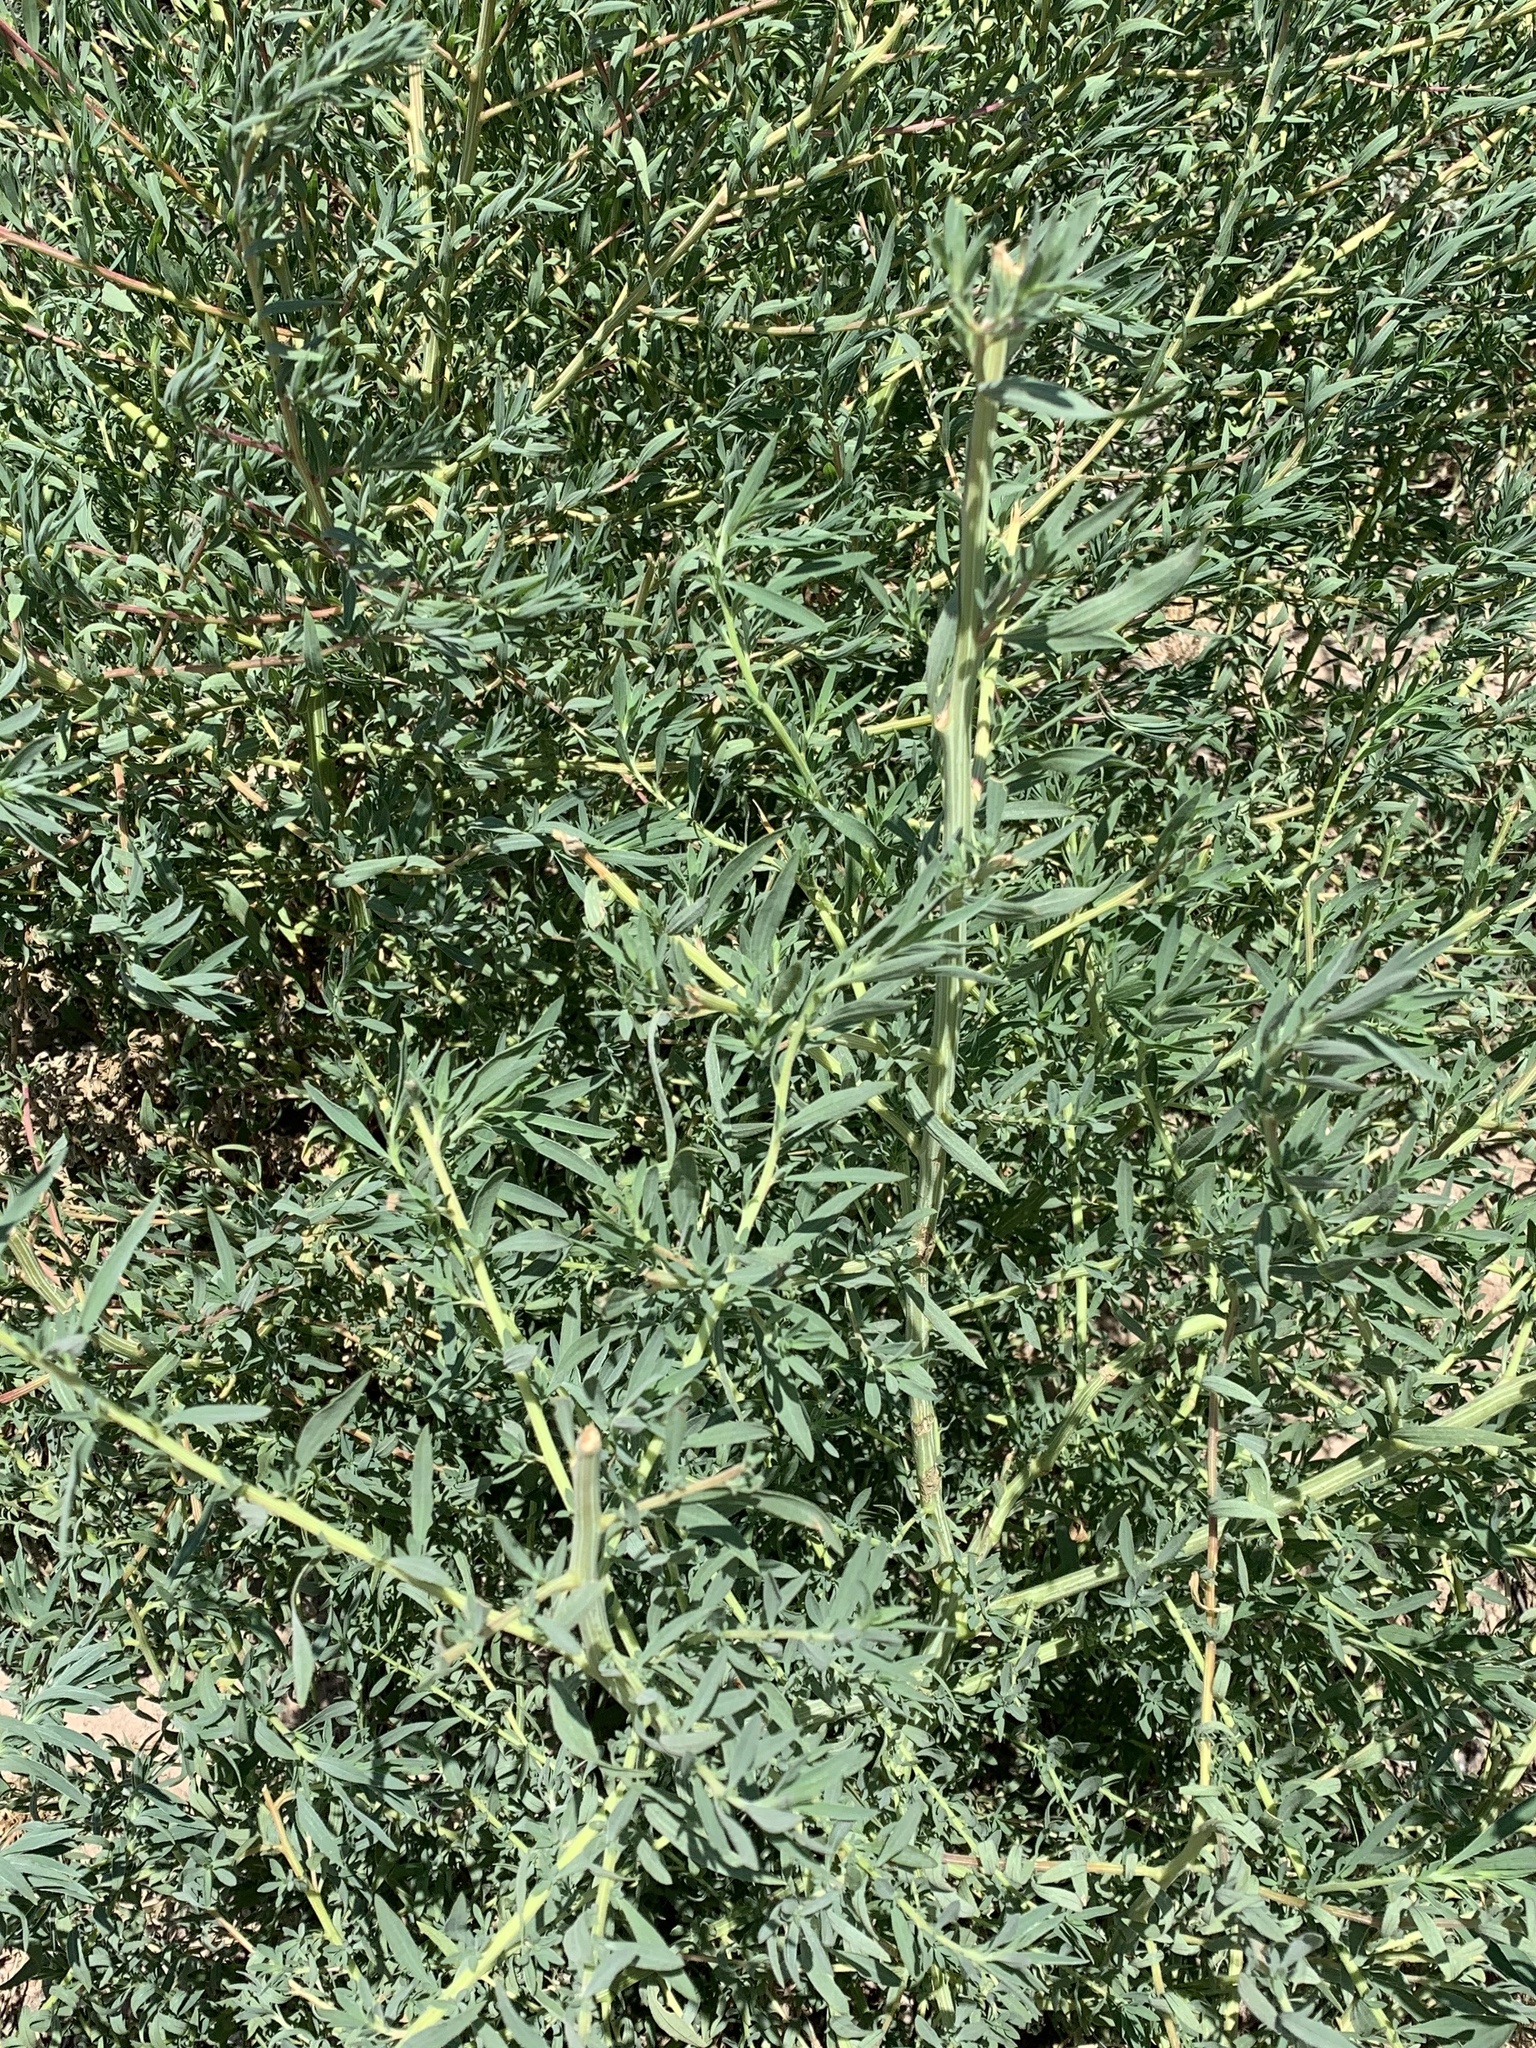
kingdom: Plantae
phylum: Tracheophyta
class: Magnoliopsida
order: Caryophyllales
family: Amaranthaceae
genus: Bassia
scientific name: Bassia scoparia
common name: Belvedere
